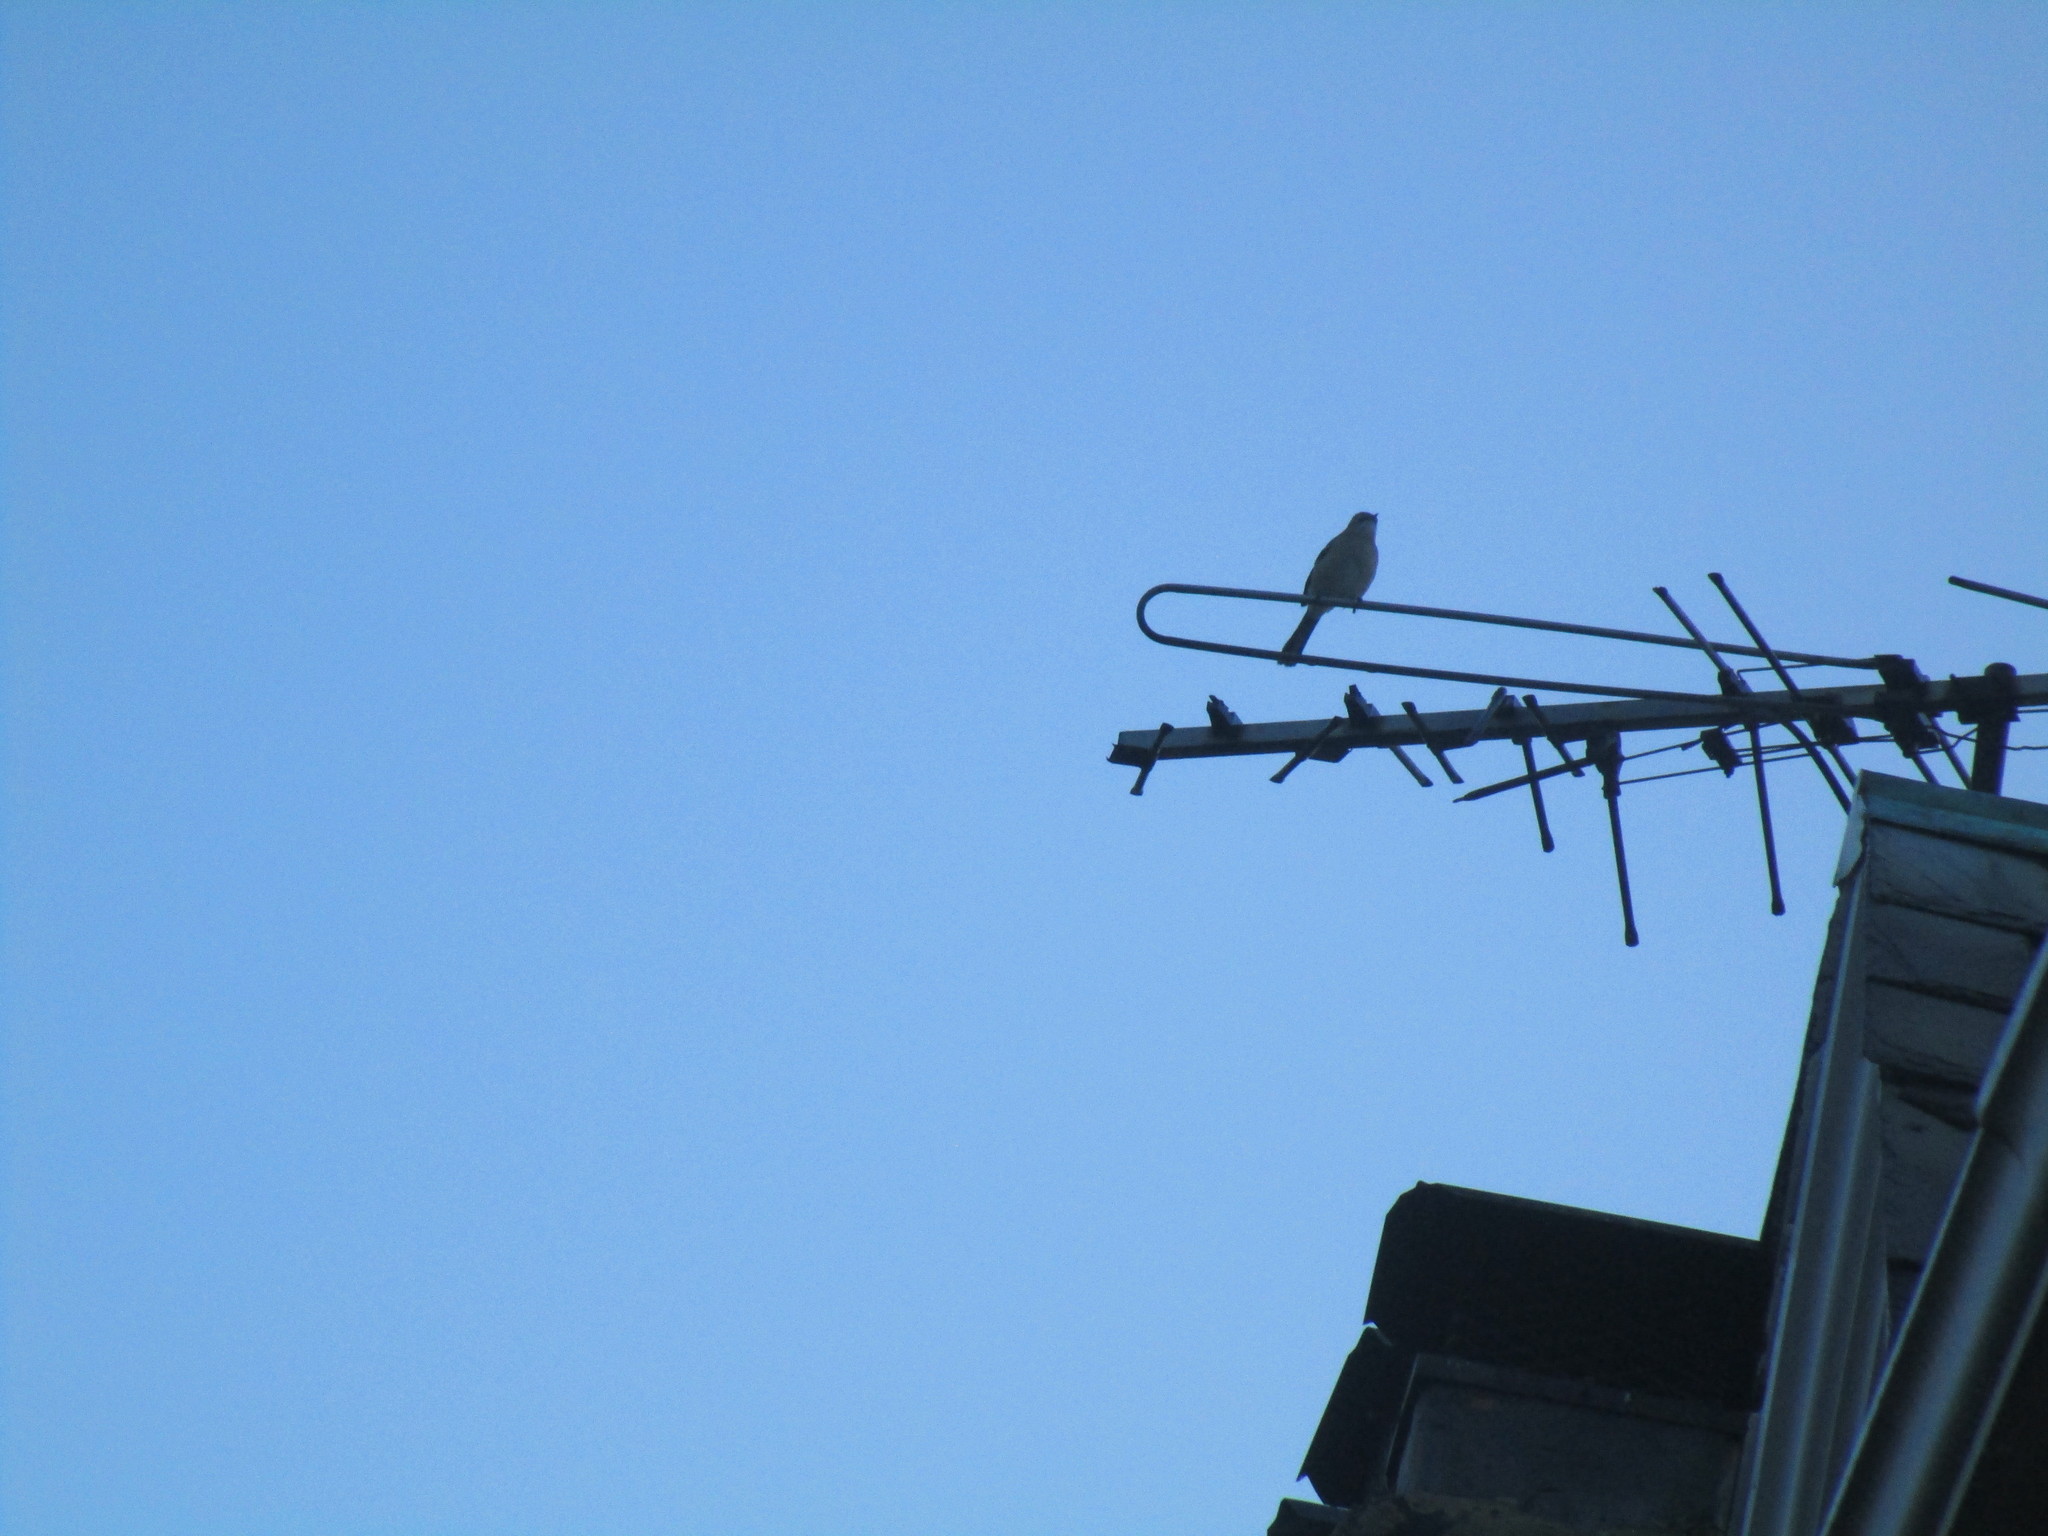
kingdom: Animalia
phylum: Chordata
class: Aves
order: Passeriformes
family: Mimidae
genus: Mimus
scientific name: Mimus polyglottos
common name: Northern mockingbird
